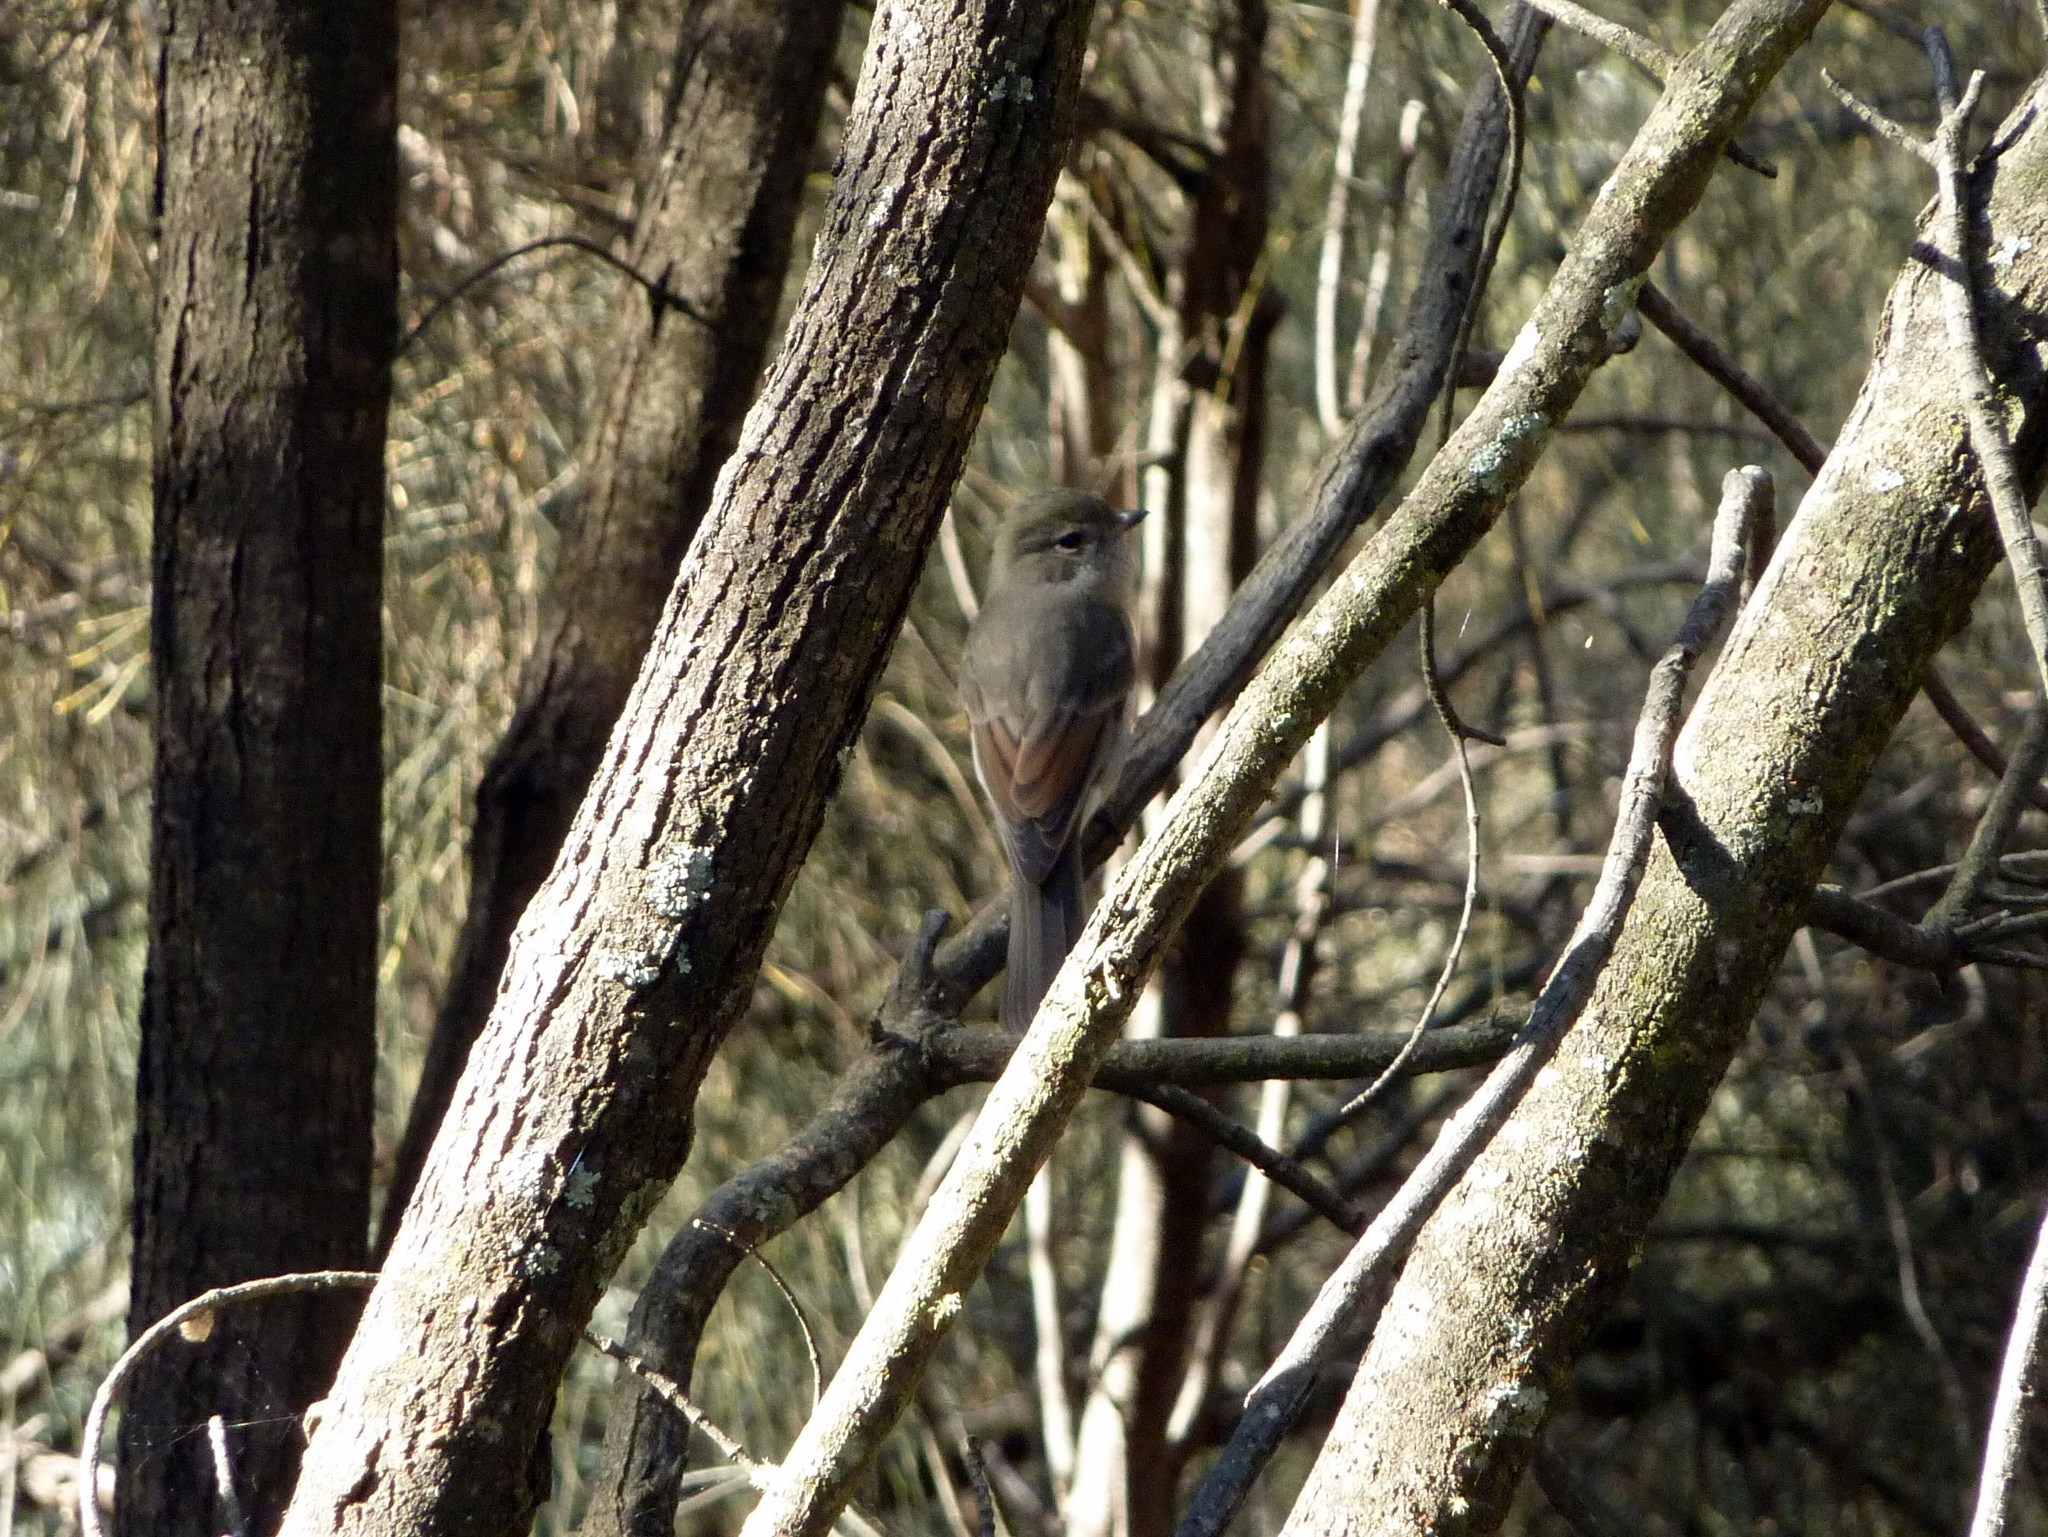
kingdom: Animalia
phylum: Chordata
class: Aves
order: Passeriformes
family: Pachycephalidae
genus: Pachycephala
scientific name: Pachycephala pectoralis
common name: Australian golden whistler
